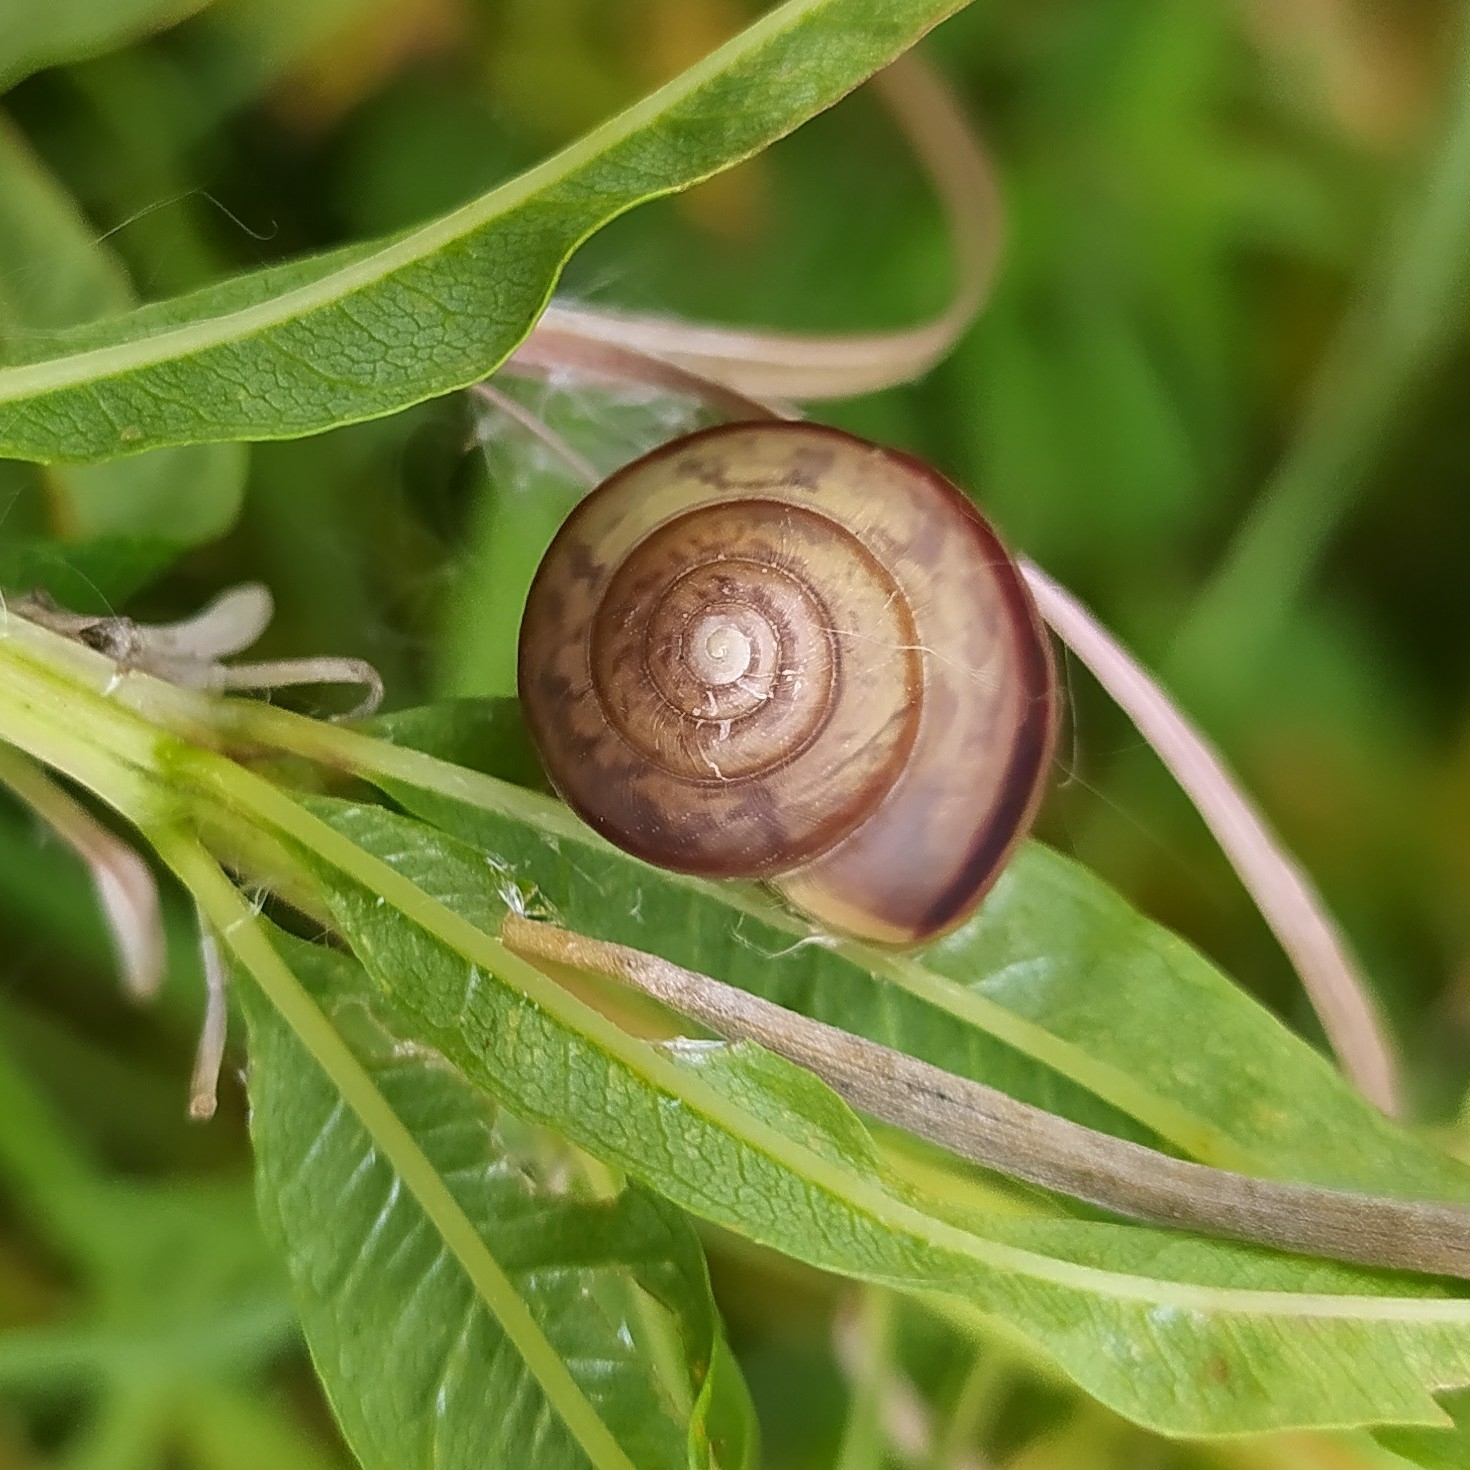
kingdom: Animalia
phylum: Mollusca
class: Gastropoda
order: Stylommatophora
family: Camaenidae
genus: Fruticicola
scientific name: Fruticicola fruticum
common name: Bush snail
